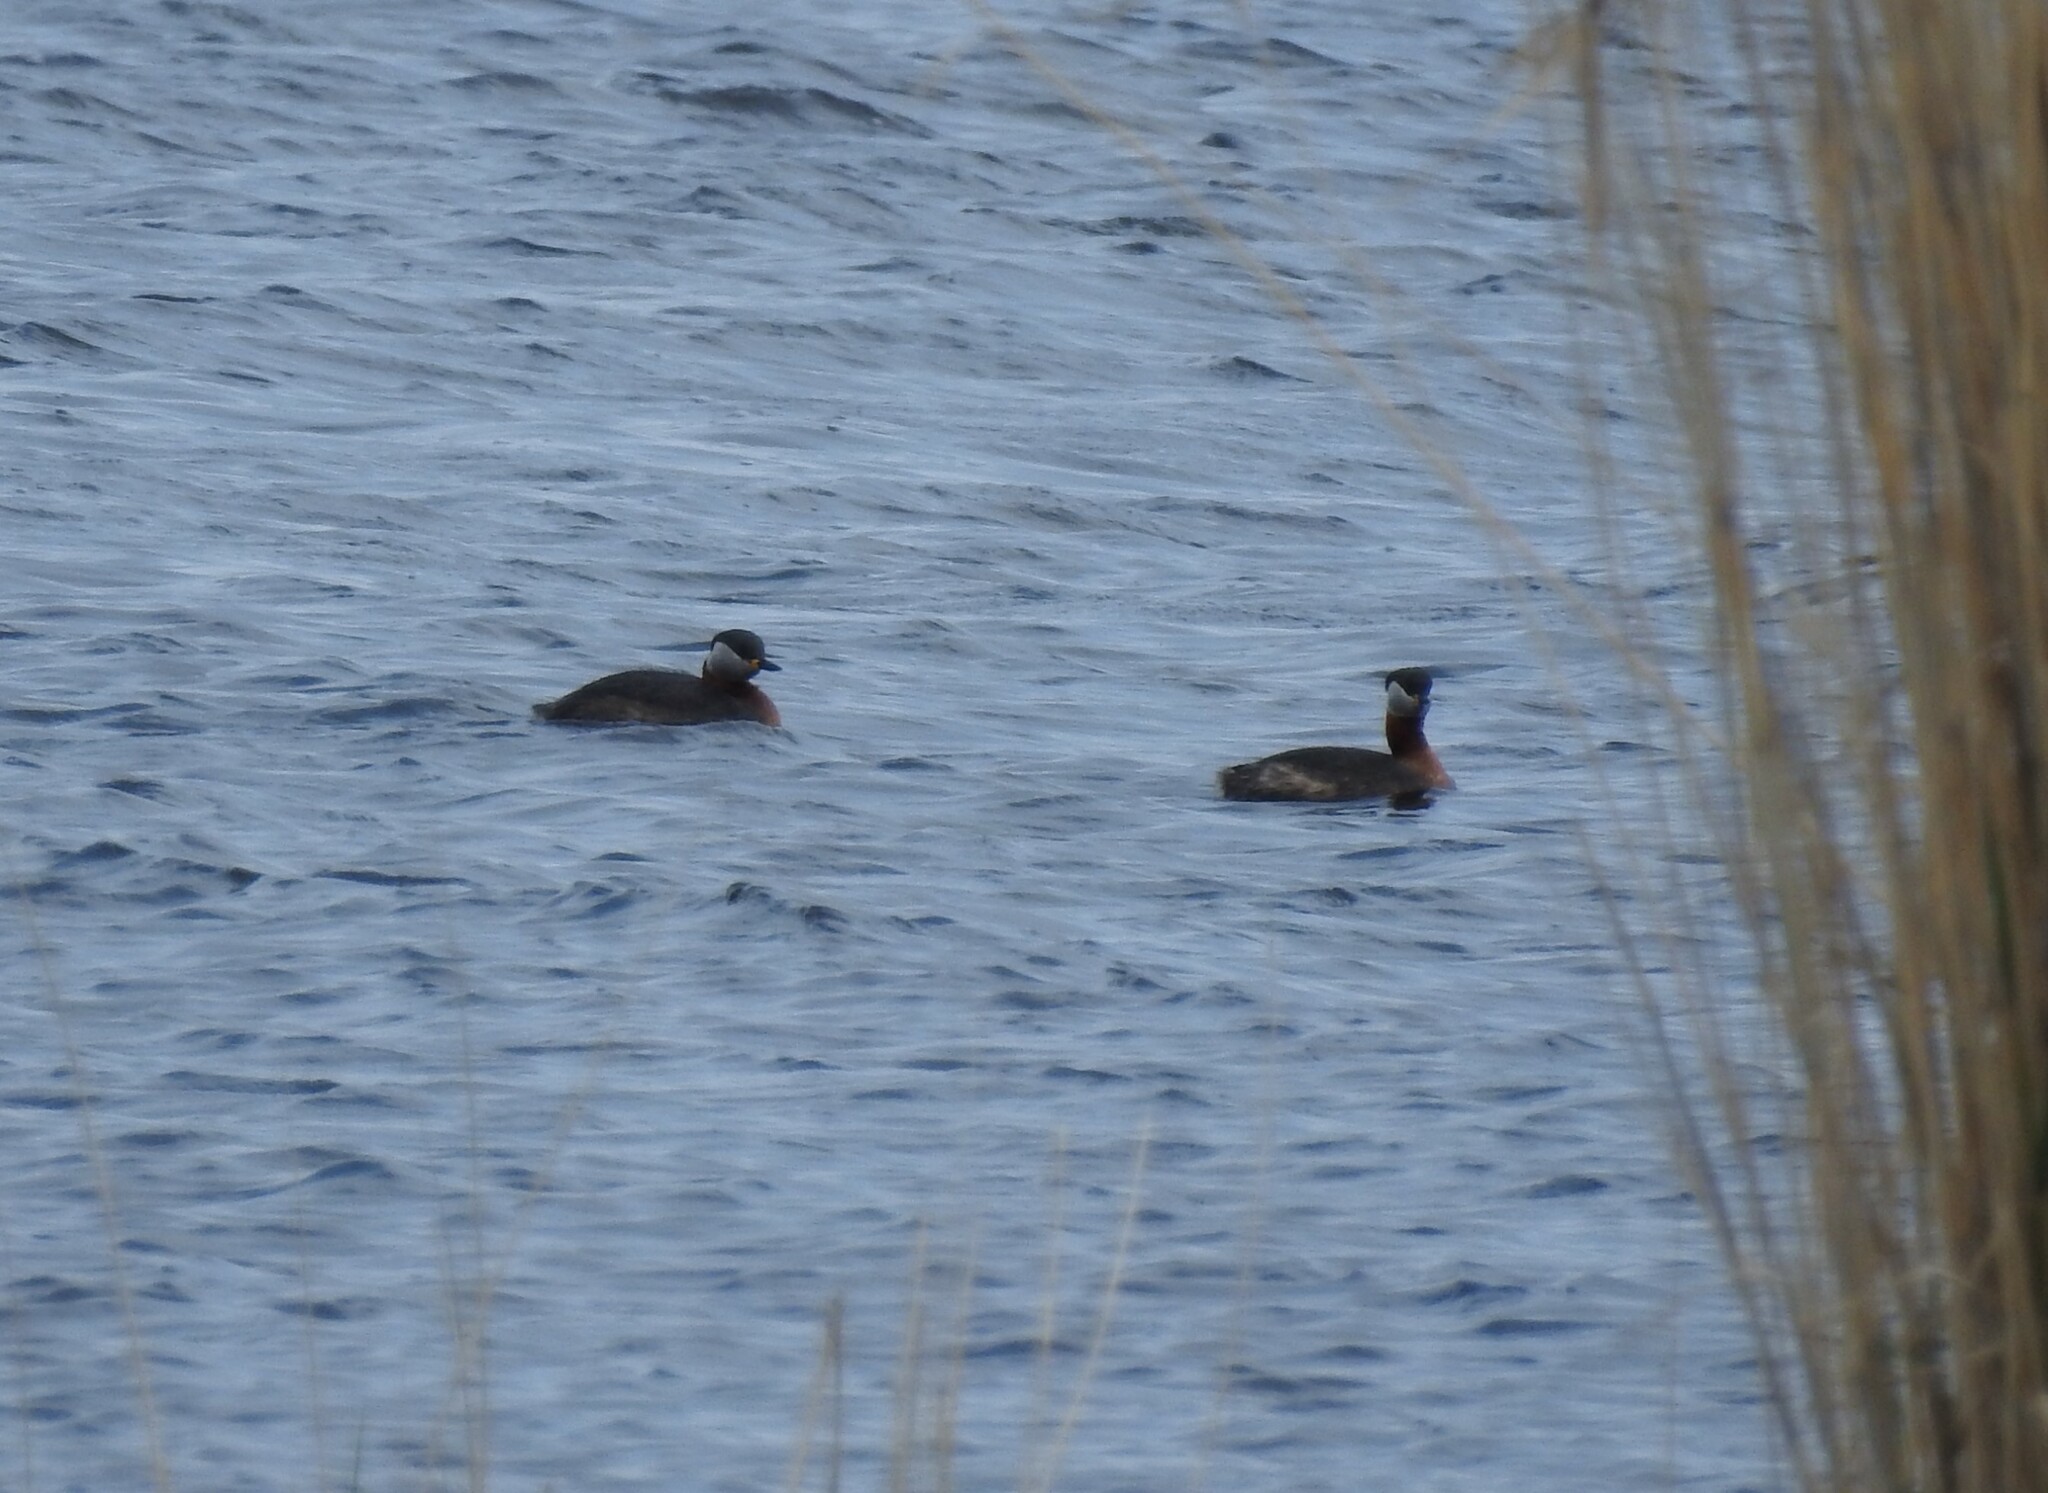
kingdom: Animalia
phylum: Chordata
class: Aves
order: Podicipediformes
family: Podicipedidae
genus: Podiceps
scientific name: Podiceps grisegena
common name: Red-necked grebe
